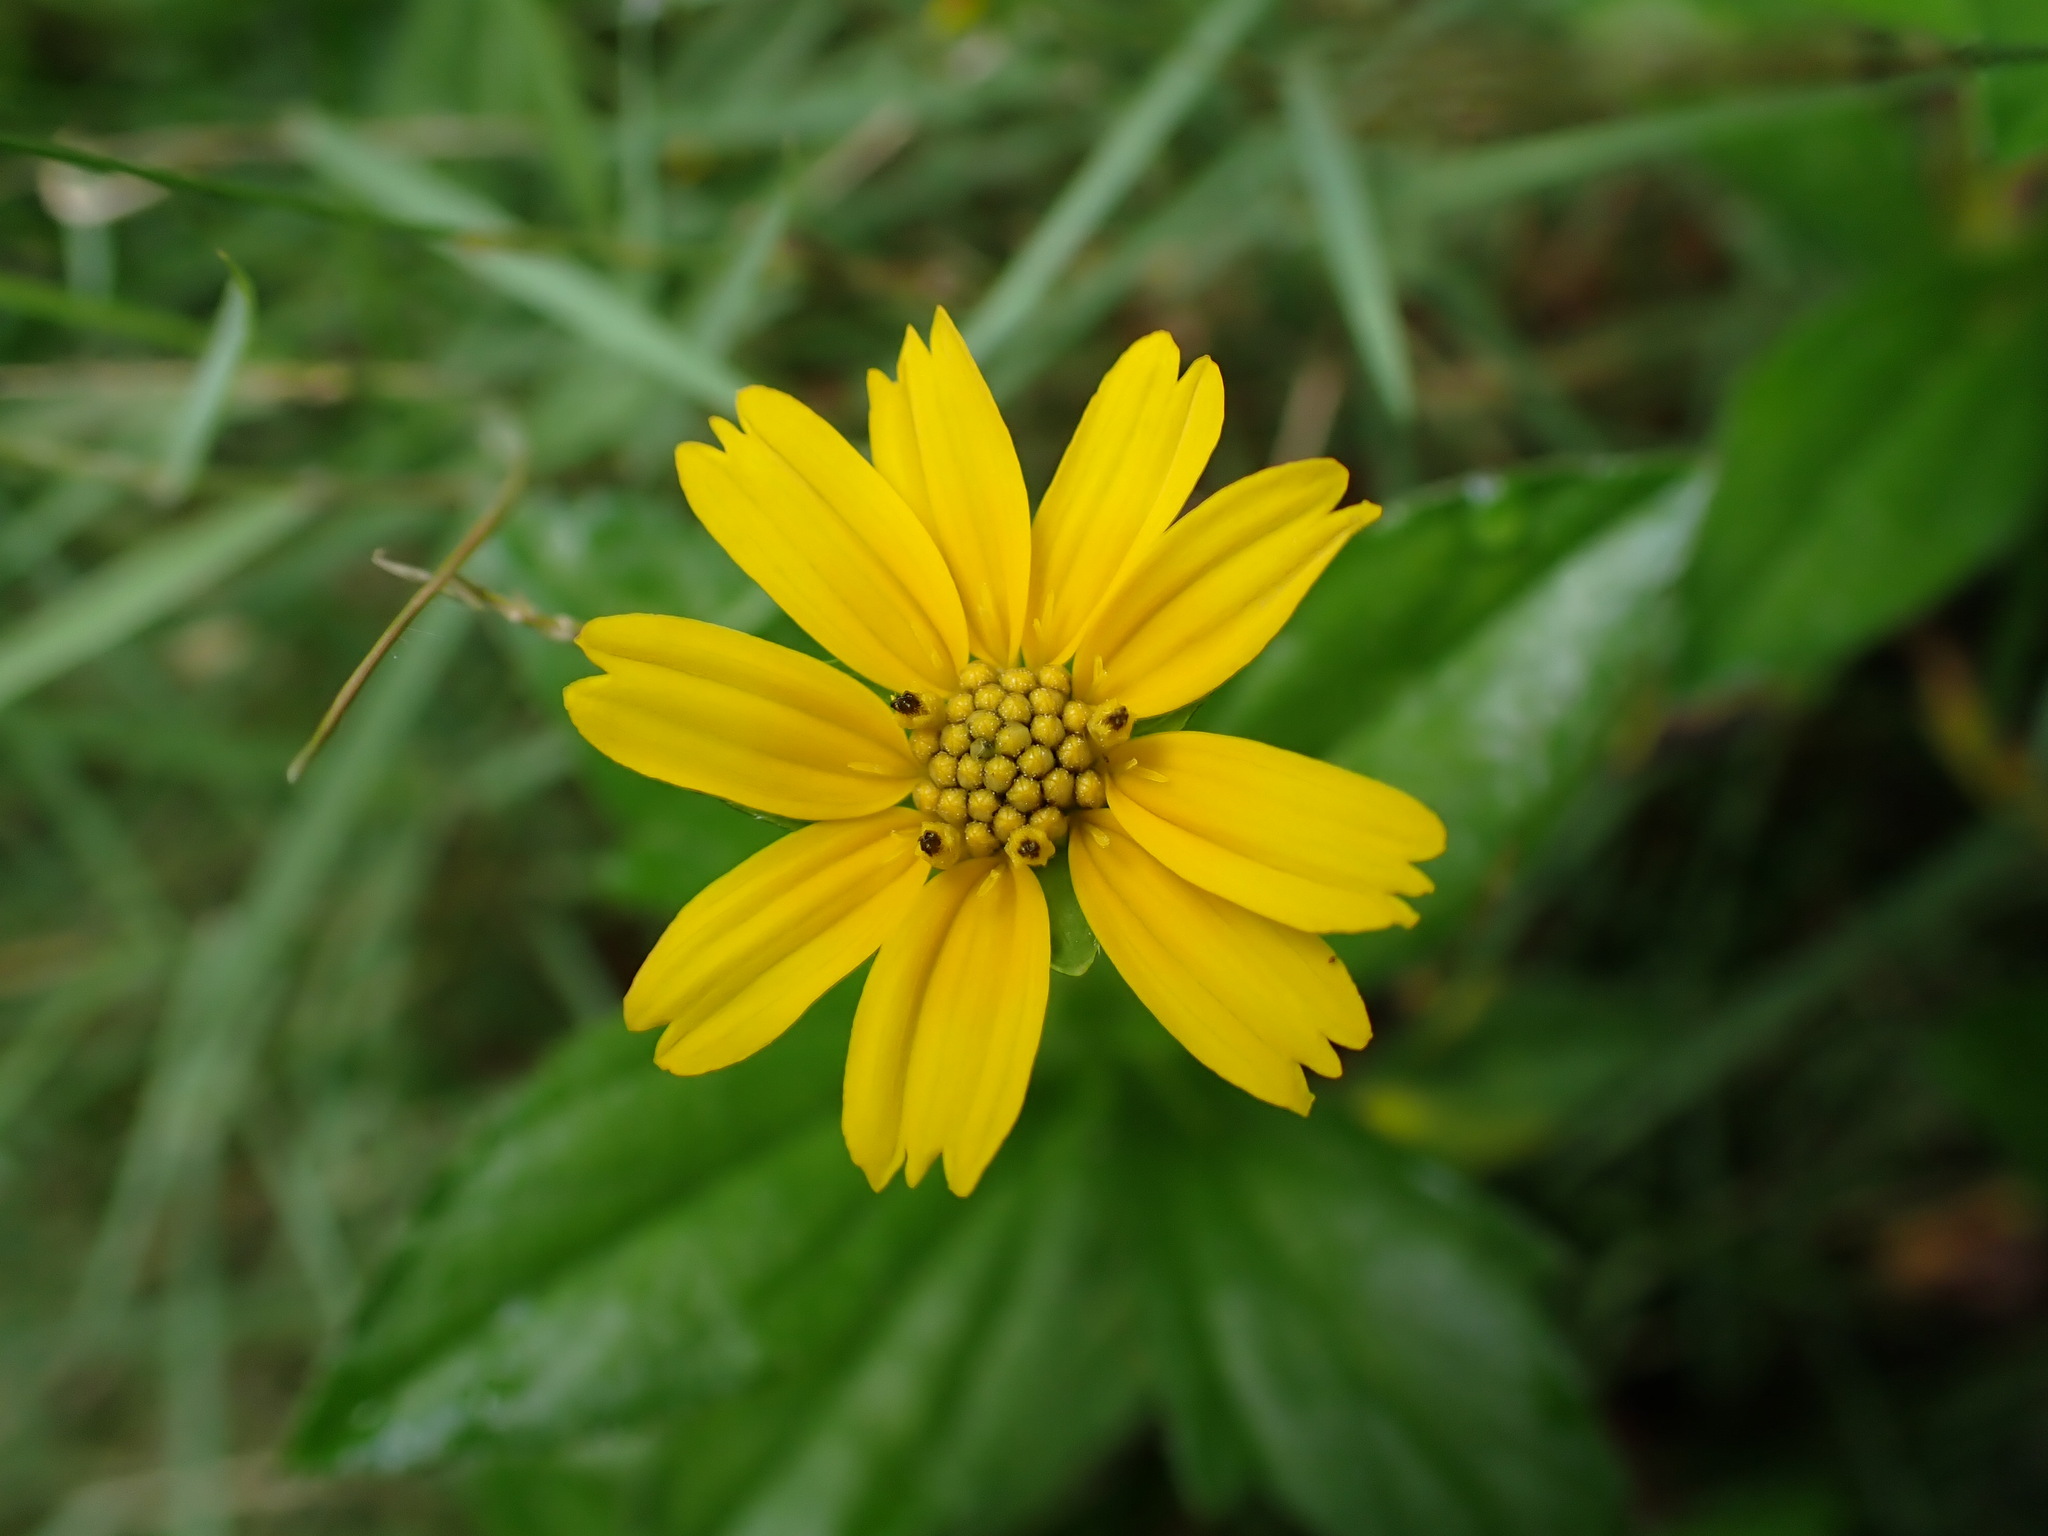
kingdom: Plantae
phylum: Tracheophyta
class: Magnoliopsida
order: Asterales
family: Asteraceae
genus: Sphagneticola
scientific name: Sphagneticola trilobata
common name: Bay biscayne creeping-oxeye
